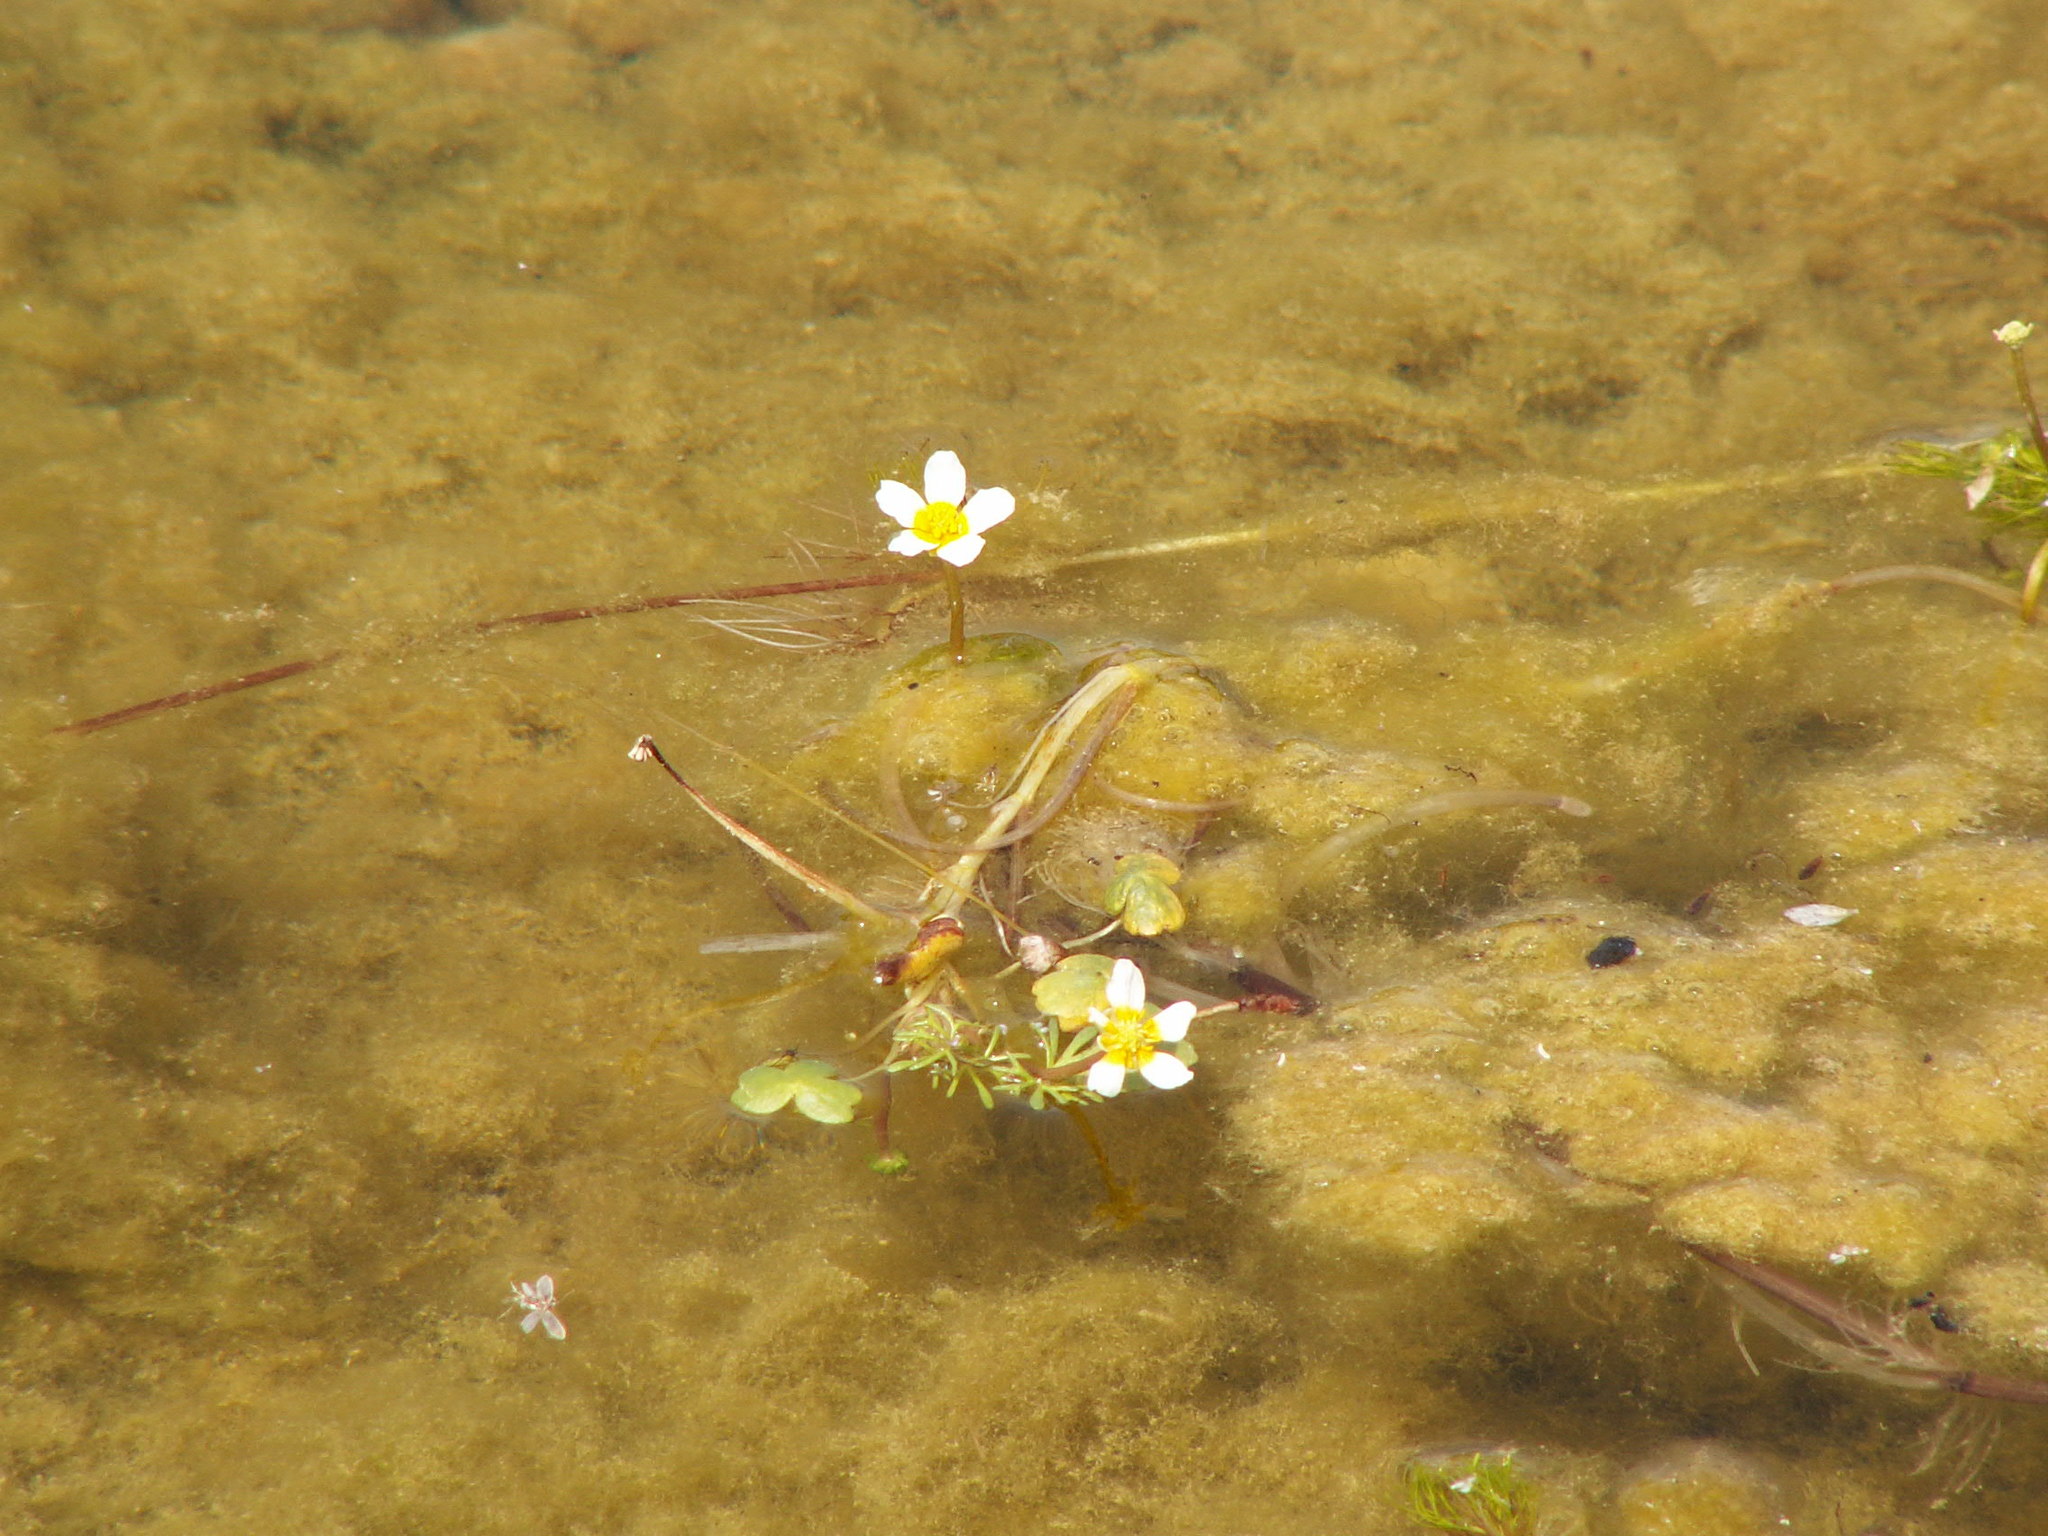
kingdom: Plantae
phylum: Tracheophyta
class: Magnoliopsida
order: Ranunculales
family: Ranunculaceae
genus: Ranunculus
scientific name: Ranunculus peltatus
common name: Pond water-crowfoot
